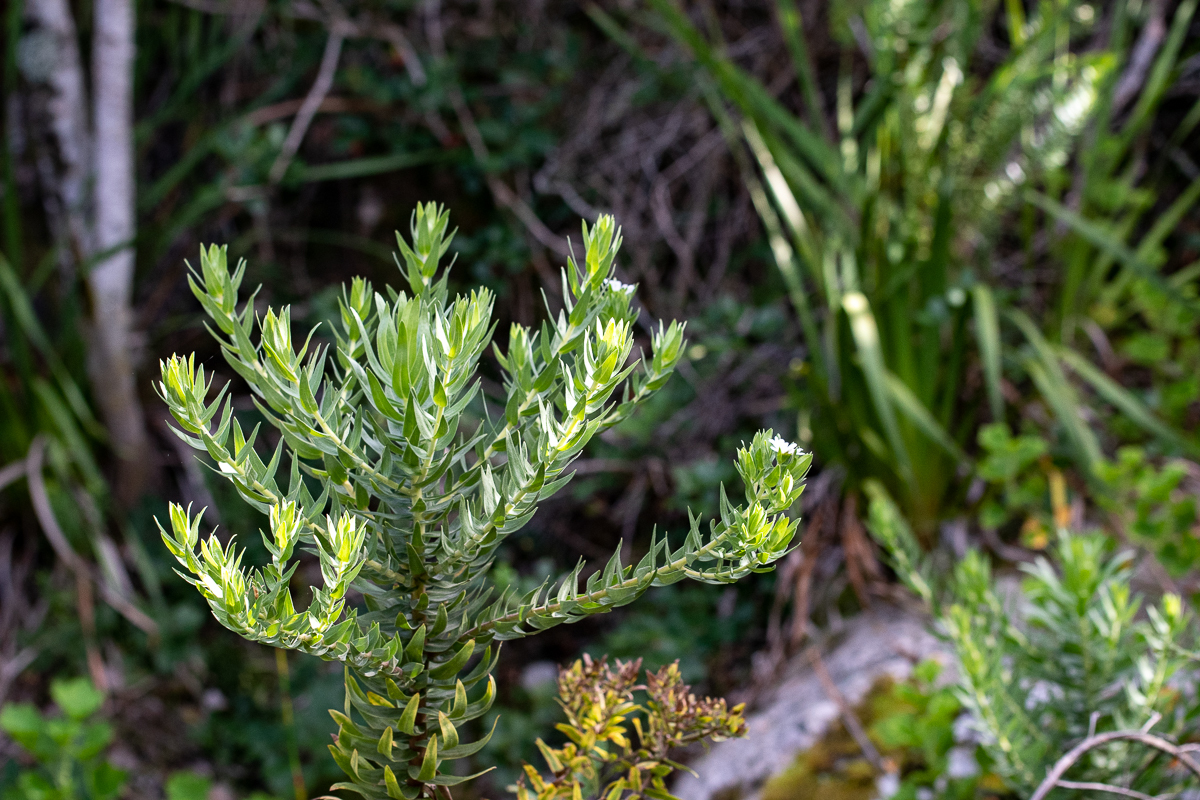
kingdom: Plantae
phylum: Tracheophyta
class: Magnoliopsida
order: Asterales
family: Asteraceae
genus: Osmitopsis
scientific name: Osmitopsis asteriscoides
